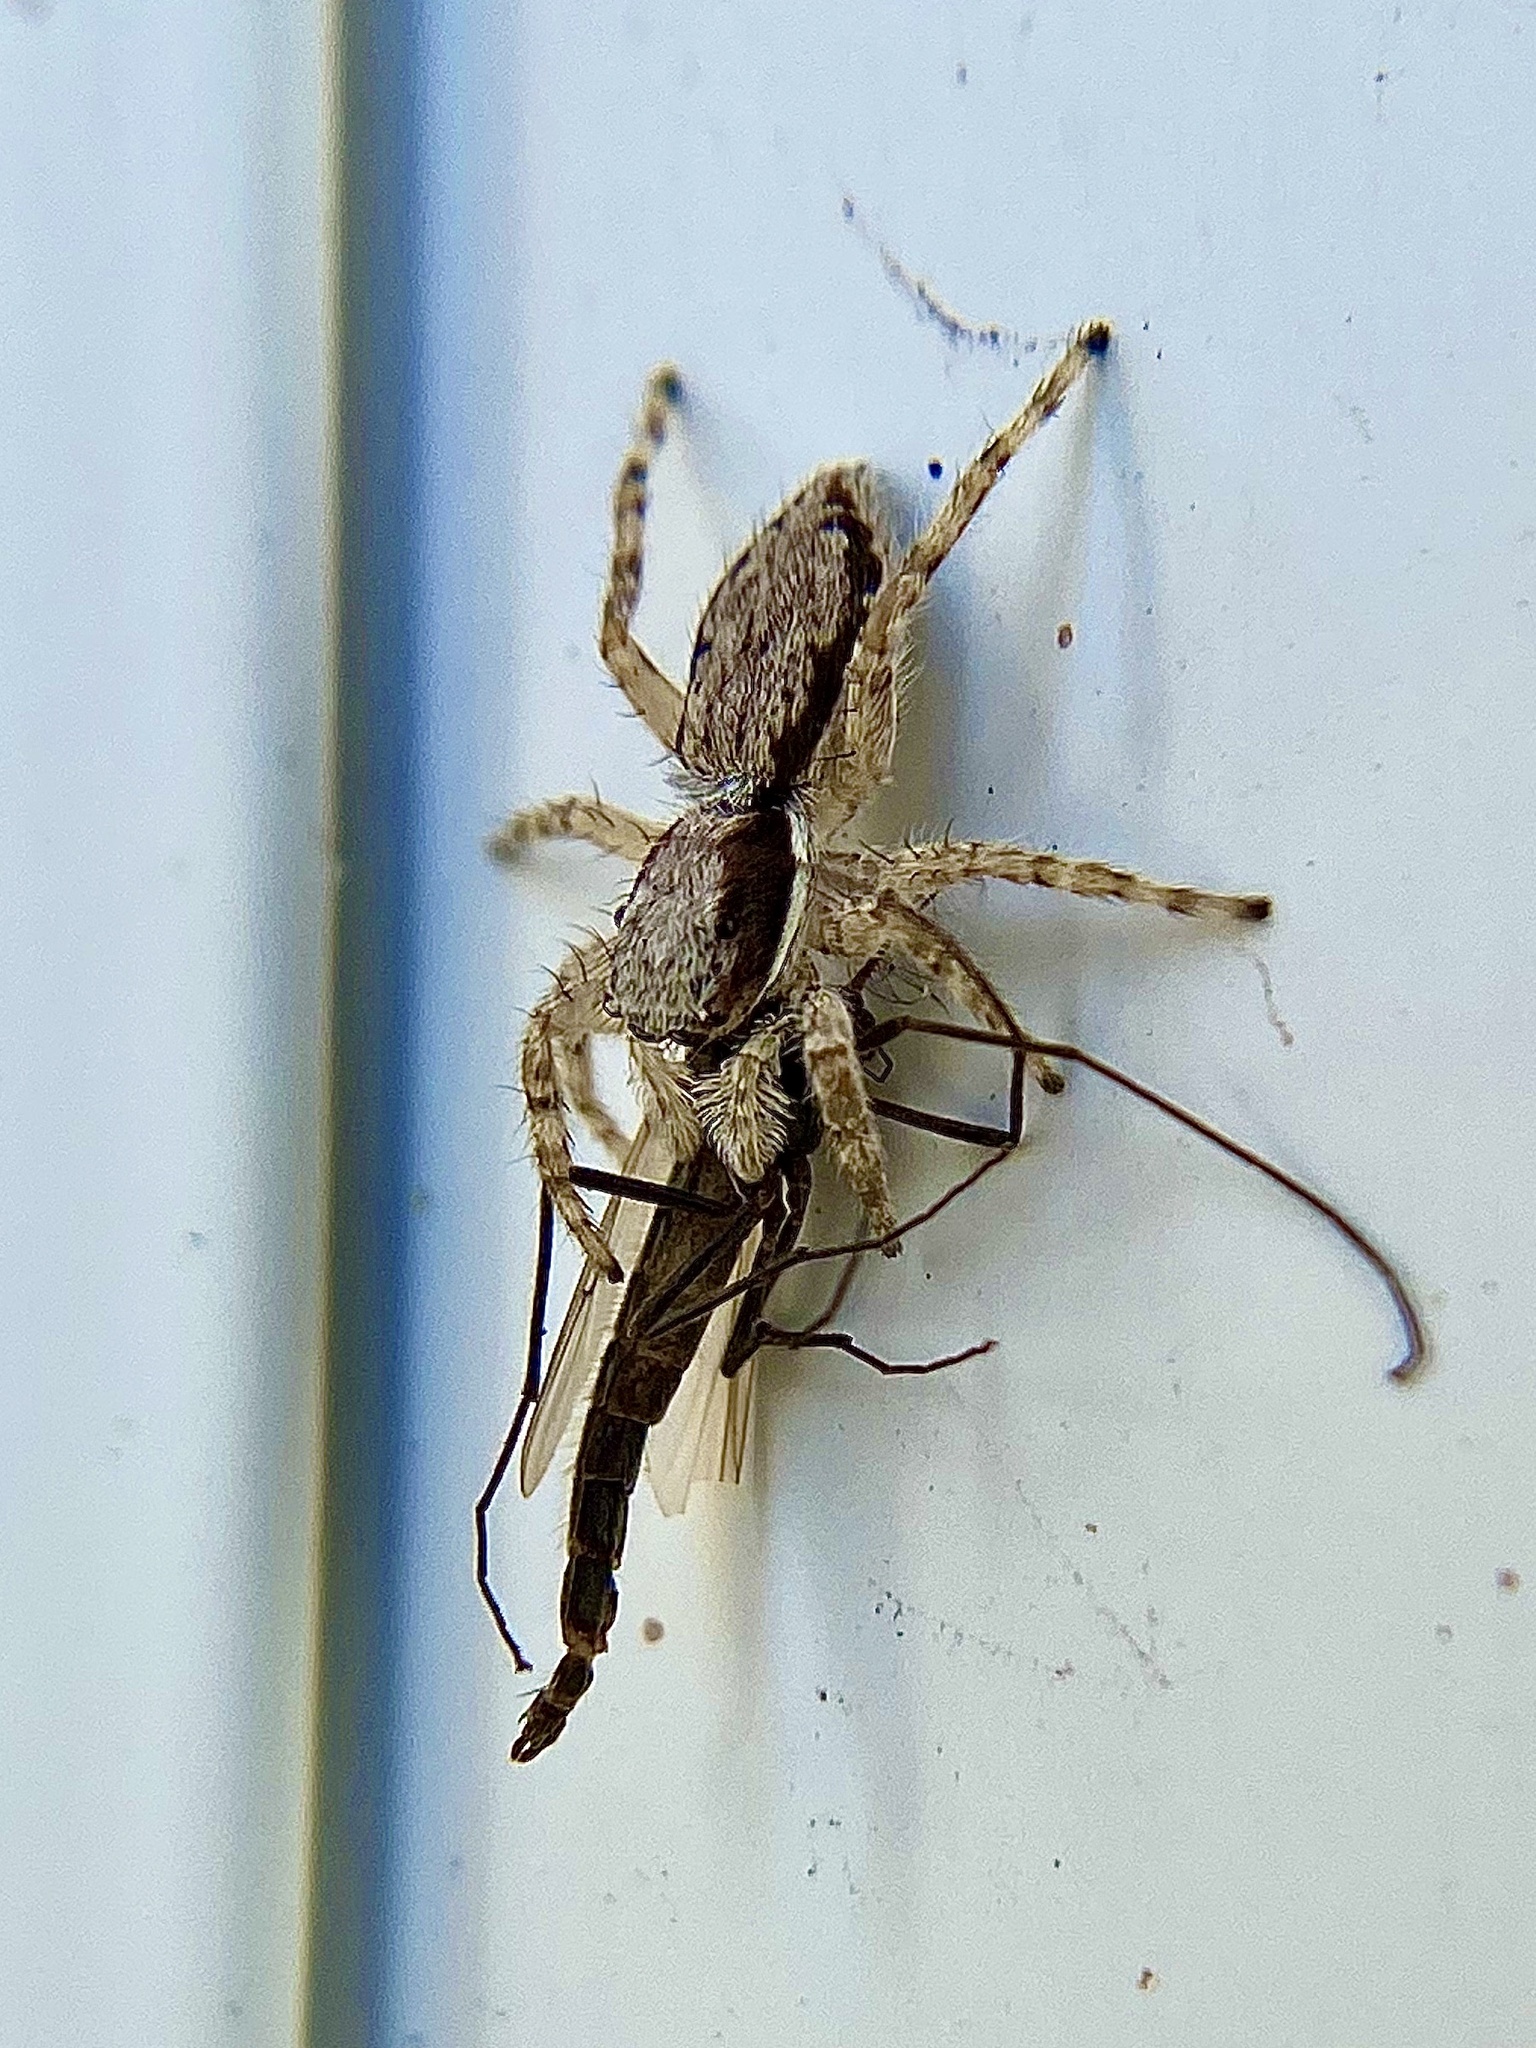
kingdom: Animalia
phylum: Arthropoda
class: Arachnida
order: Araneae
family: Salticidae
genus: Menemerus
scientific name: Menemerus bivittatus
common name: Gray wall jumper
